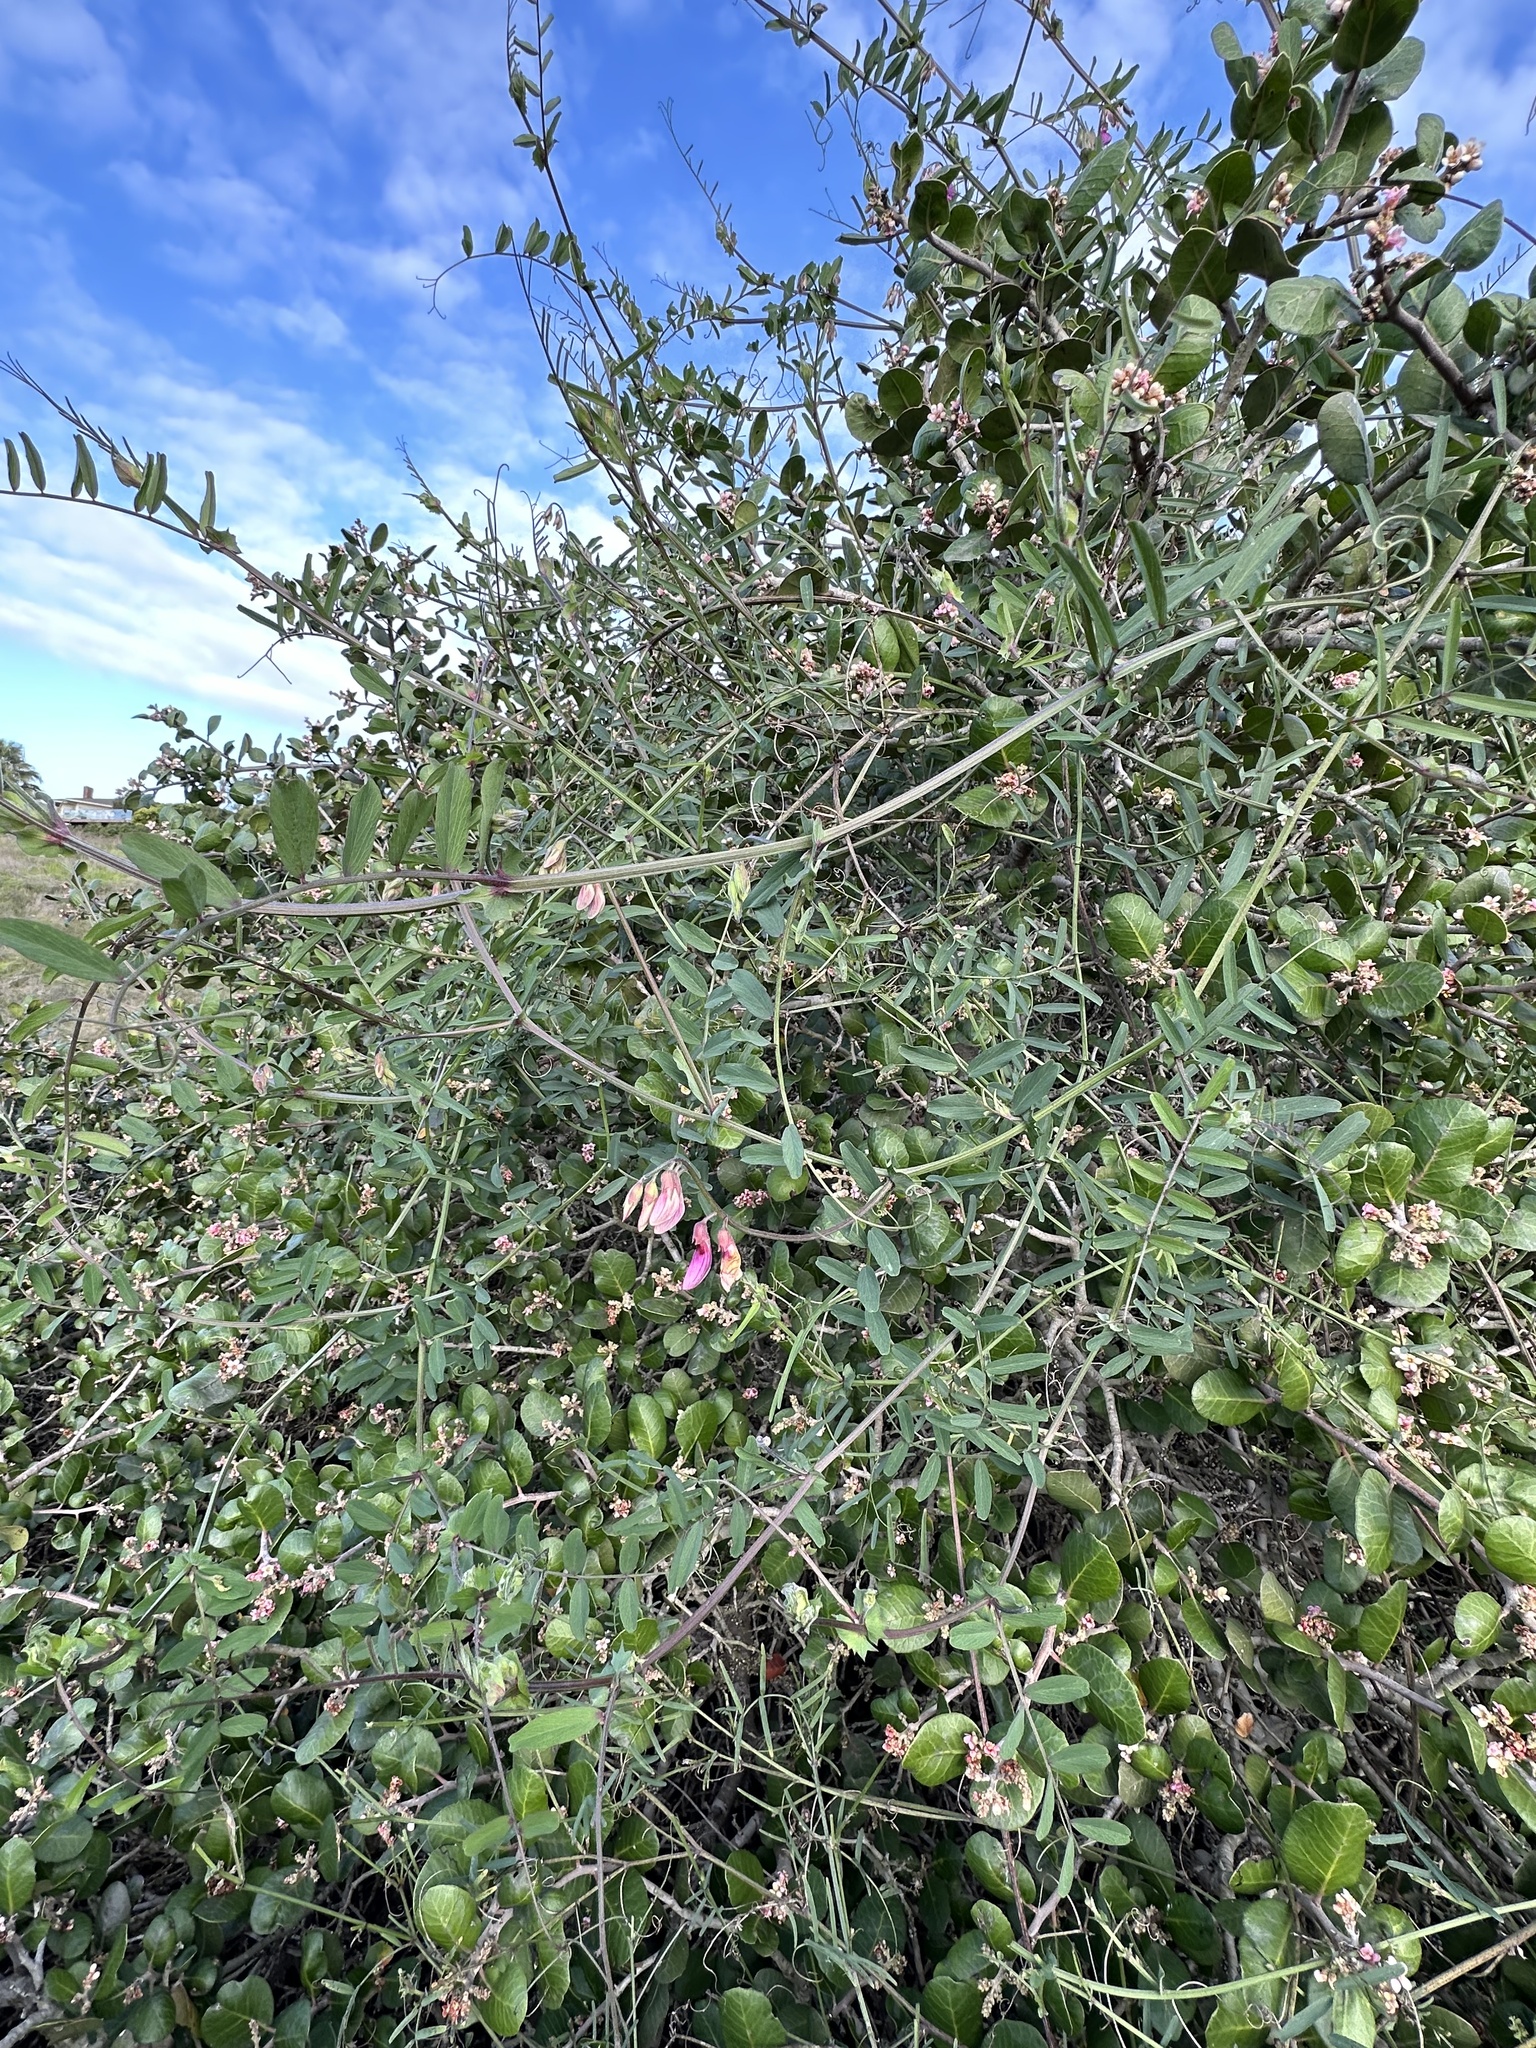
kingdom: Plantae
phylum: Tracheophyta
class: Magnoliopsida
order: Fabales
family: Fabaceae
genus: Lathyrus
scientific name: Lathyrus vestitus
